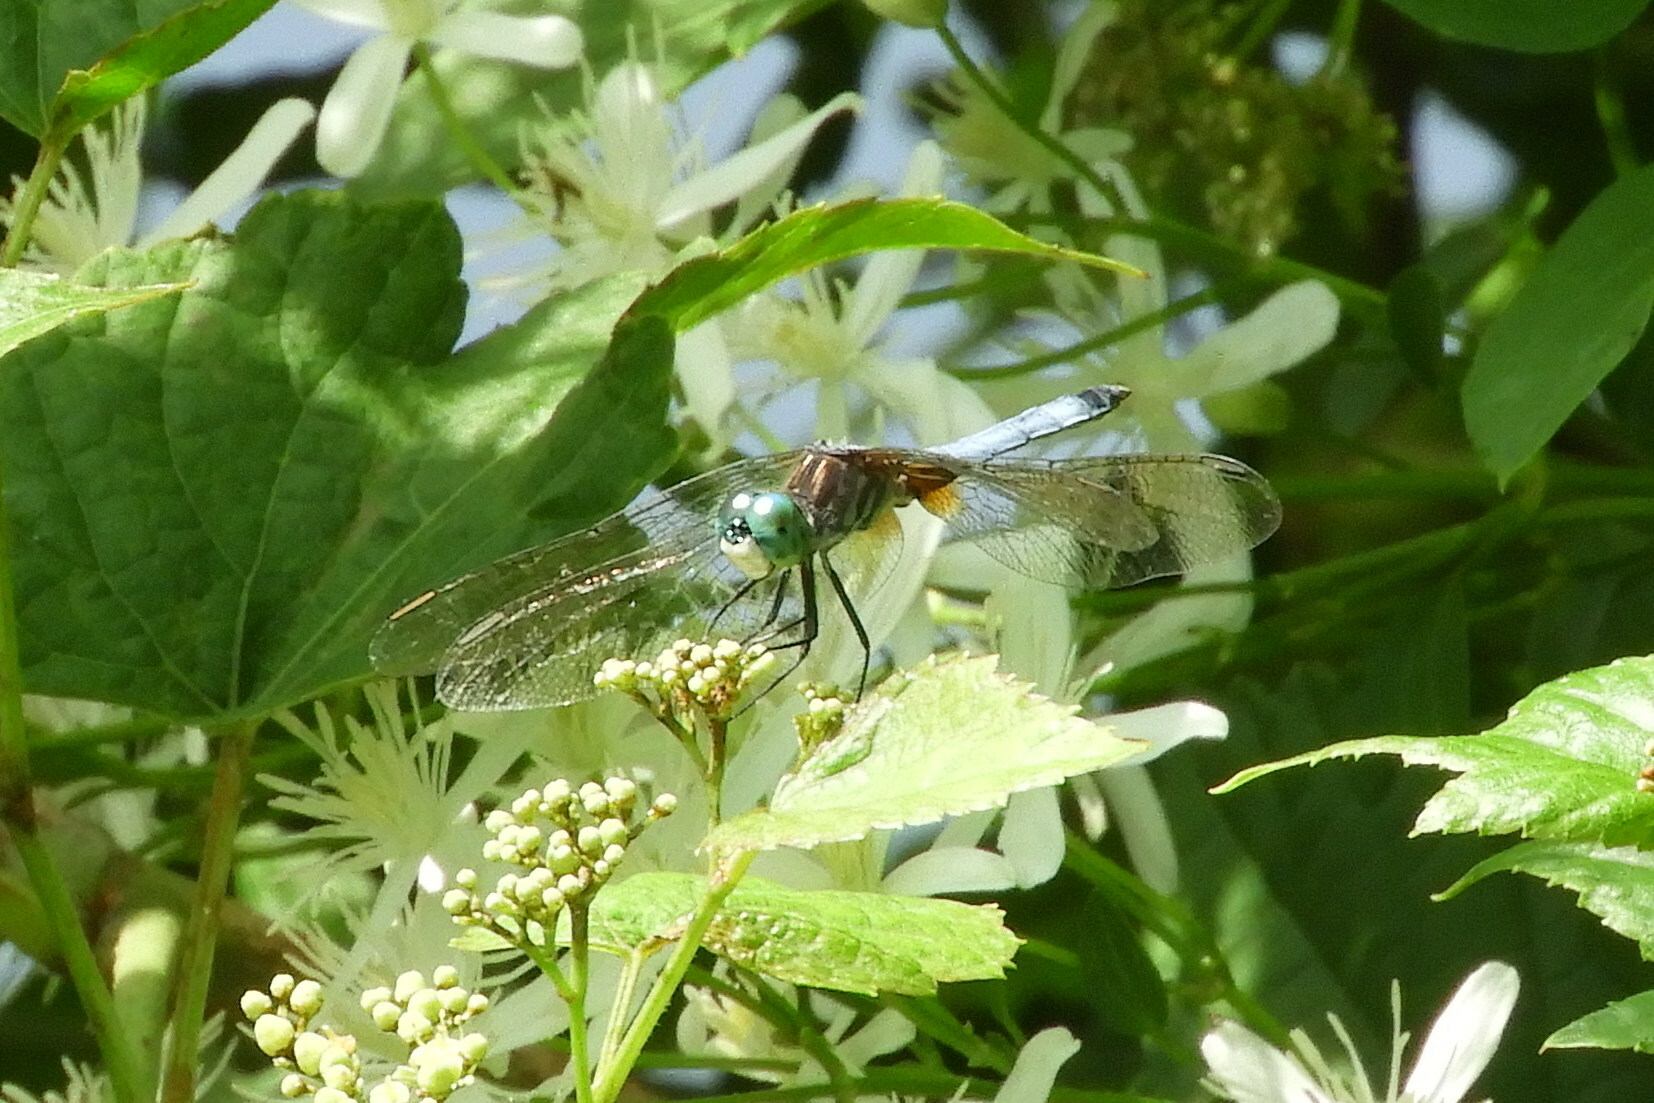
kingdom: Animalia
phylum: Arthropoda
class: Insecta
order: Odonata
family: Libellulidae
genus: Pachydiplax
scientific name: Pachydiplax longipennis
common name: Blue dasher
